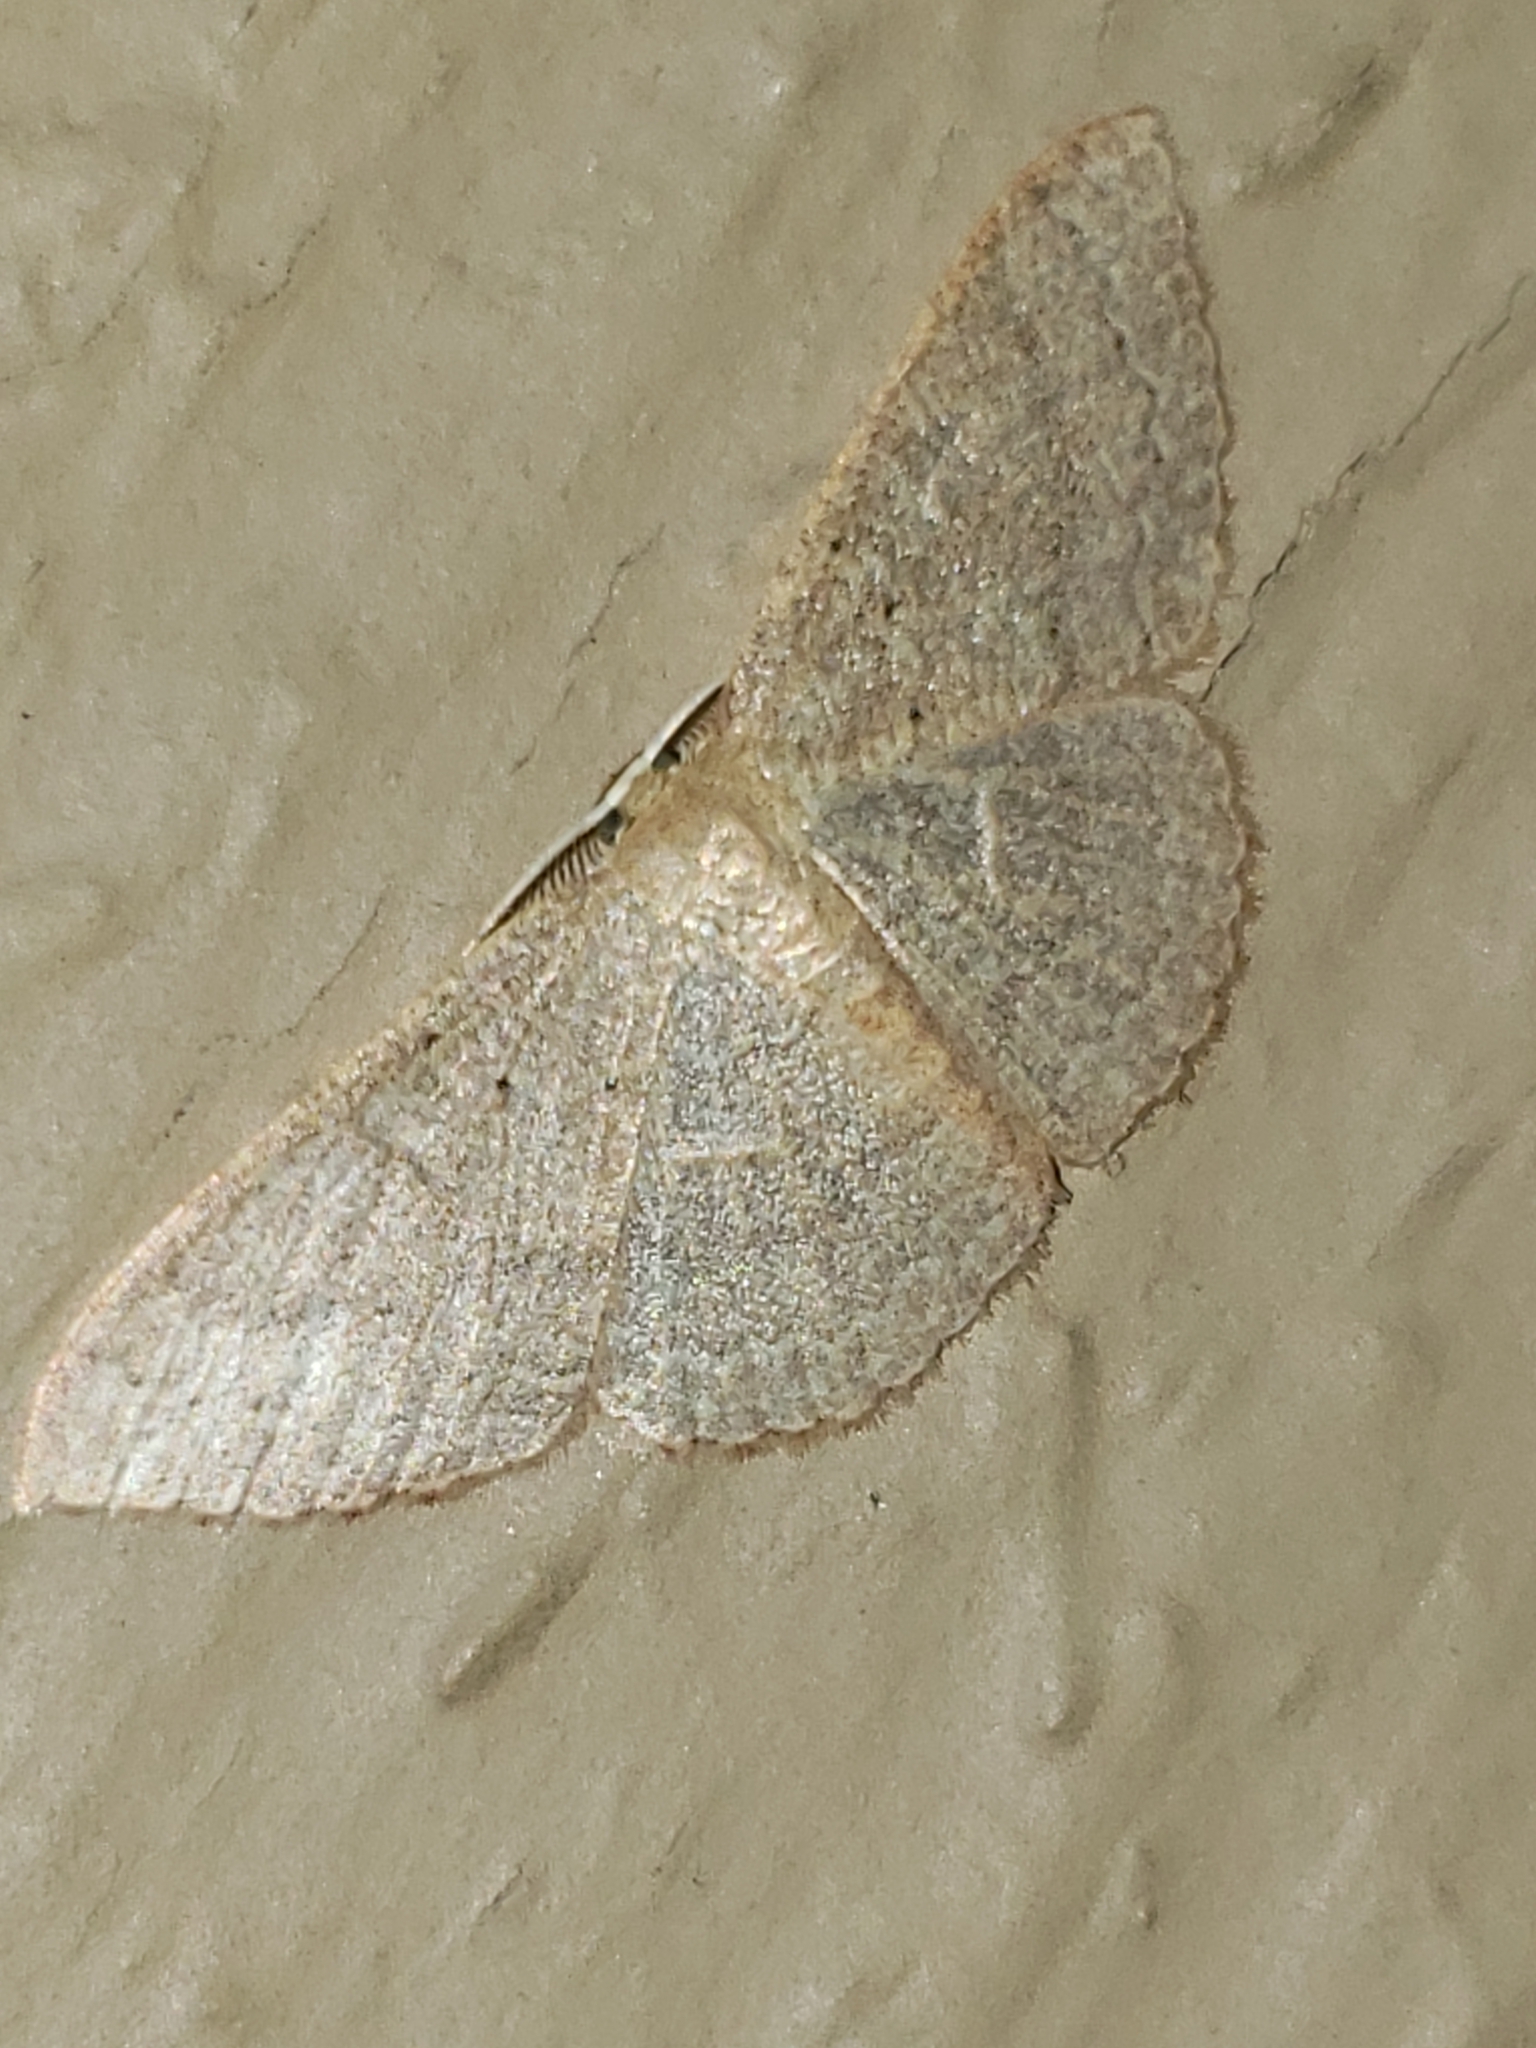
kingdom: Animalia
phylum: Arthropoda
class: Insecta
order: Lepidoptera
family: Geometridae
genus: Pleuroprucha
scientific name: Pleuroprucha insulsaria
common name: Common tan wave
